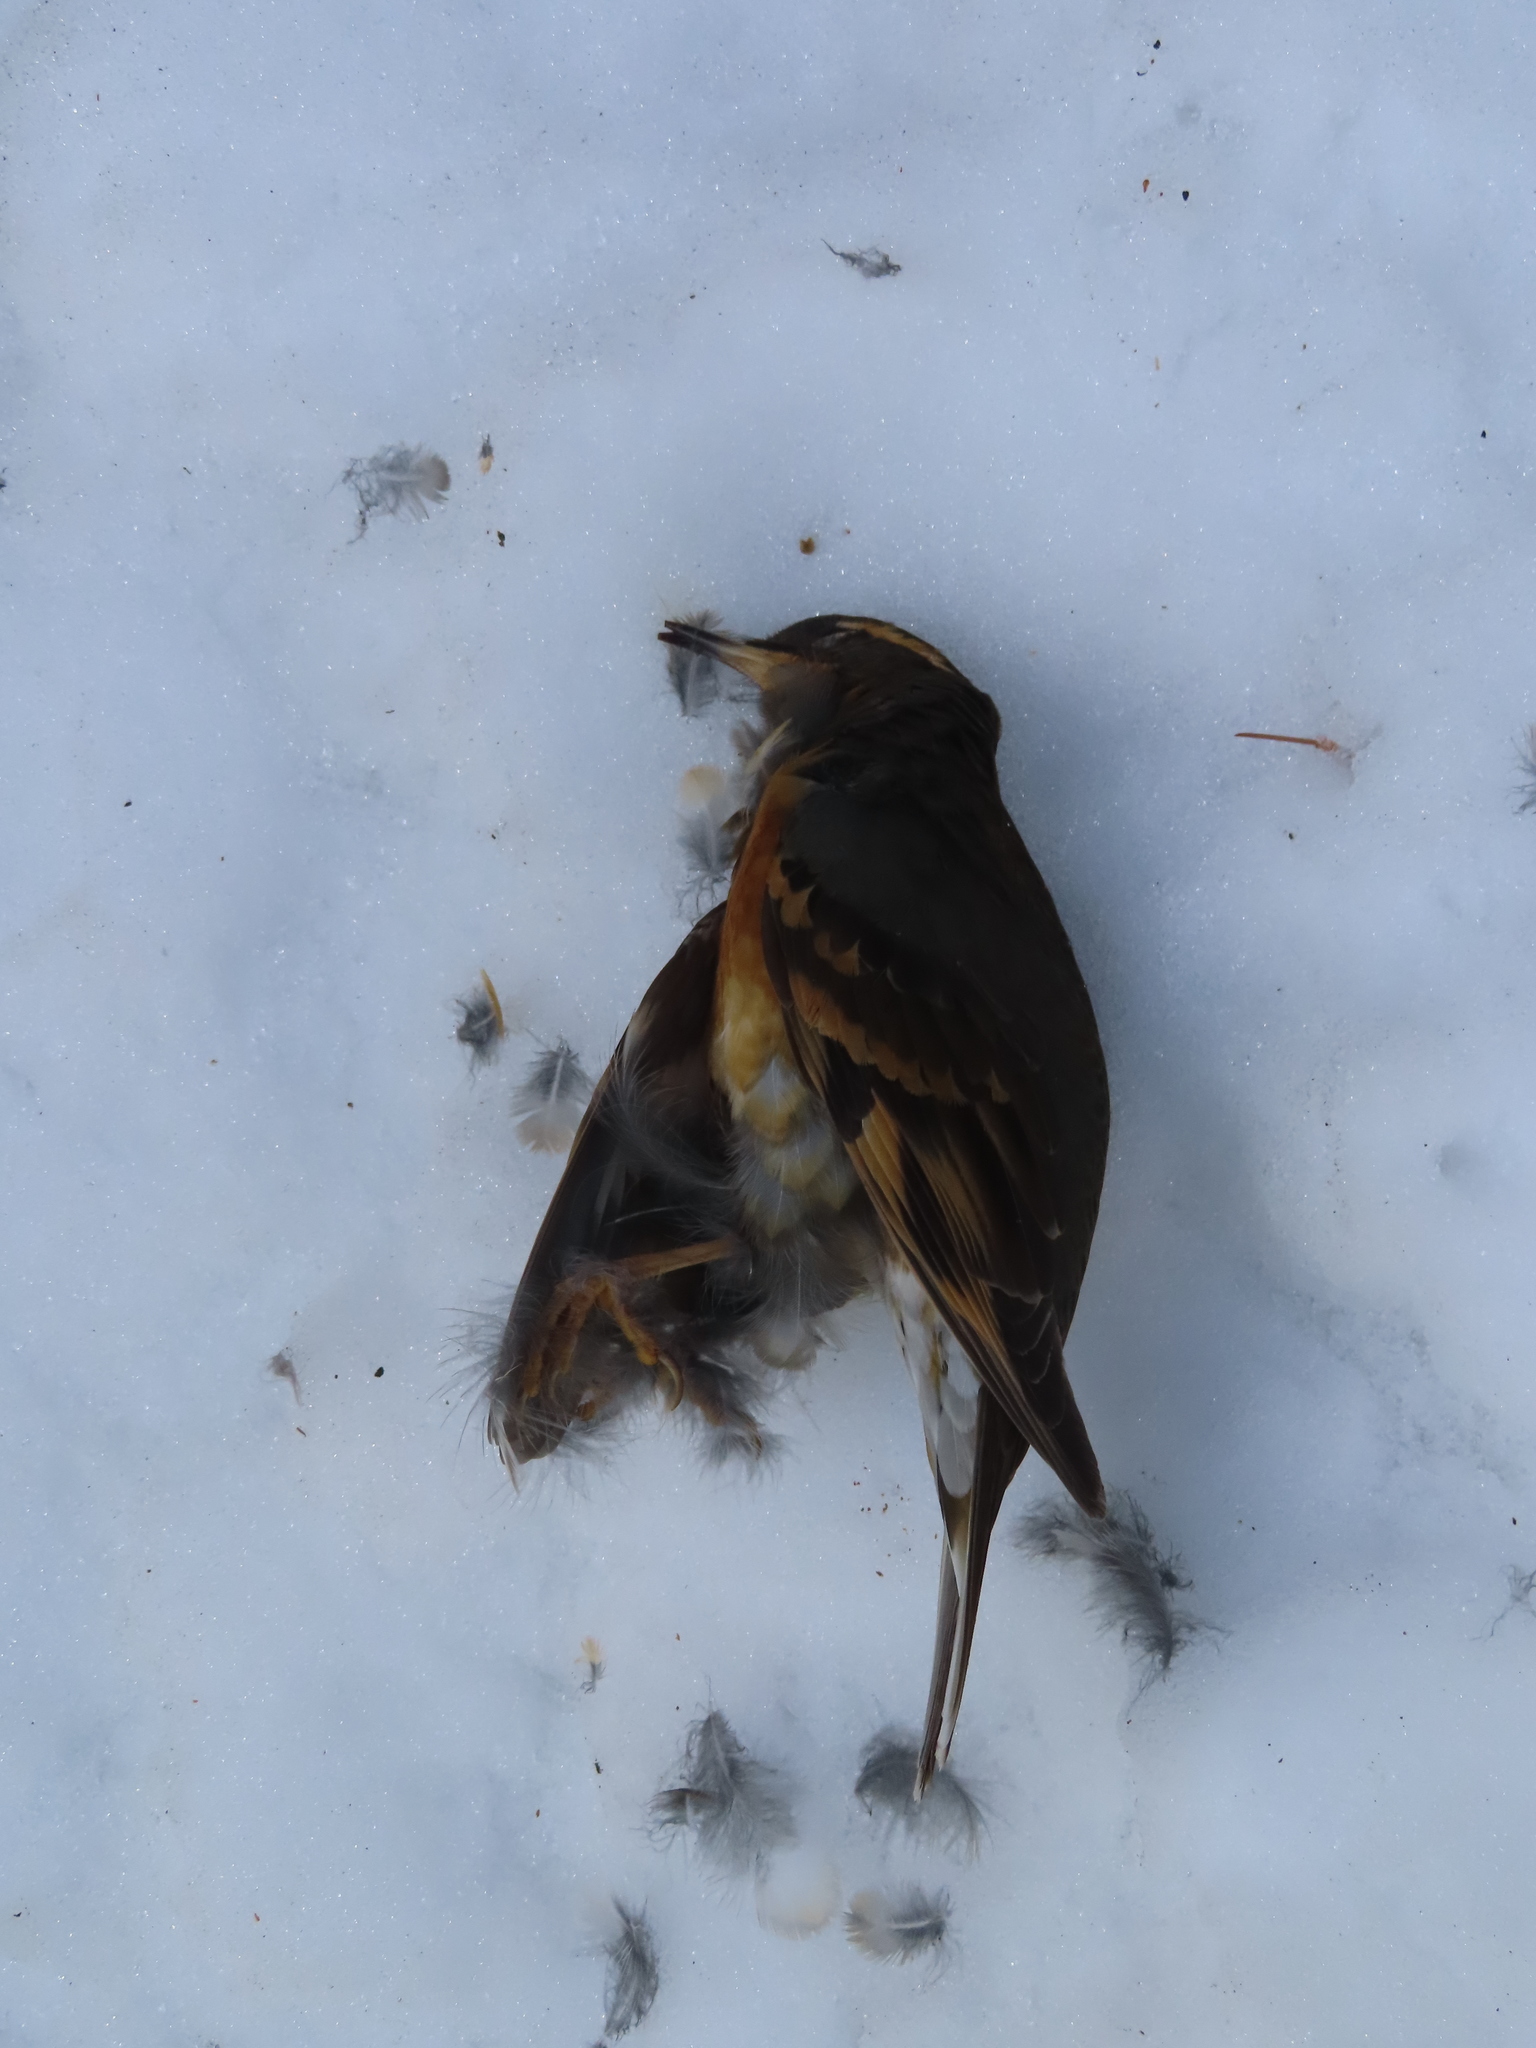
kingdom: Animalia
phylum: Chordata
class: Aves
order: Passeriformes
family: Turdidae
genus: Ixoreus
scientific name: Ixoreus naevius
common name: Varied thrush
